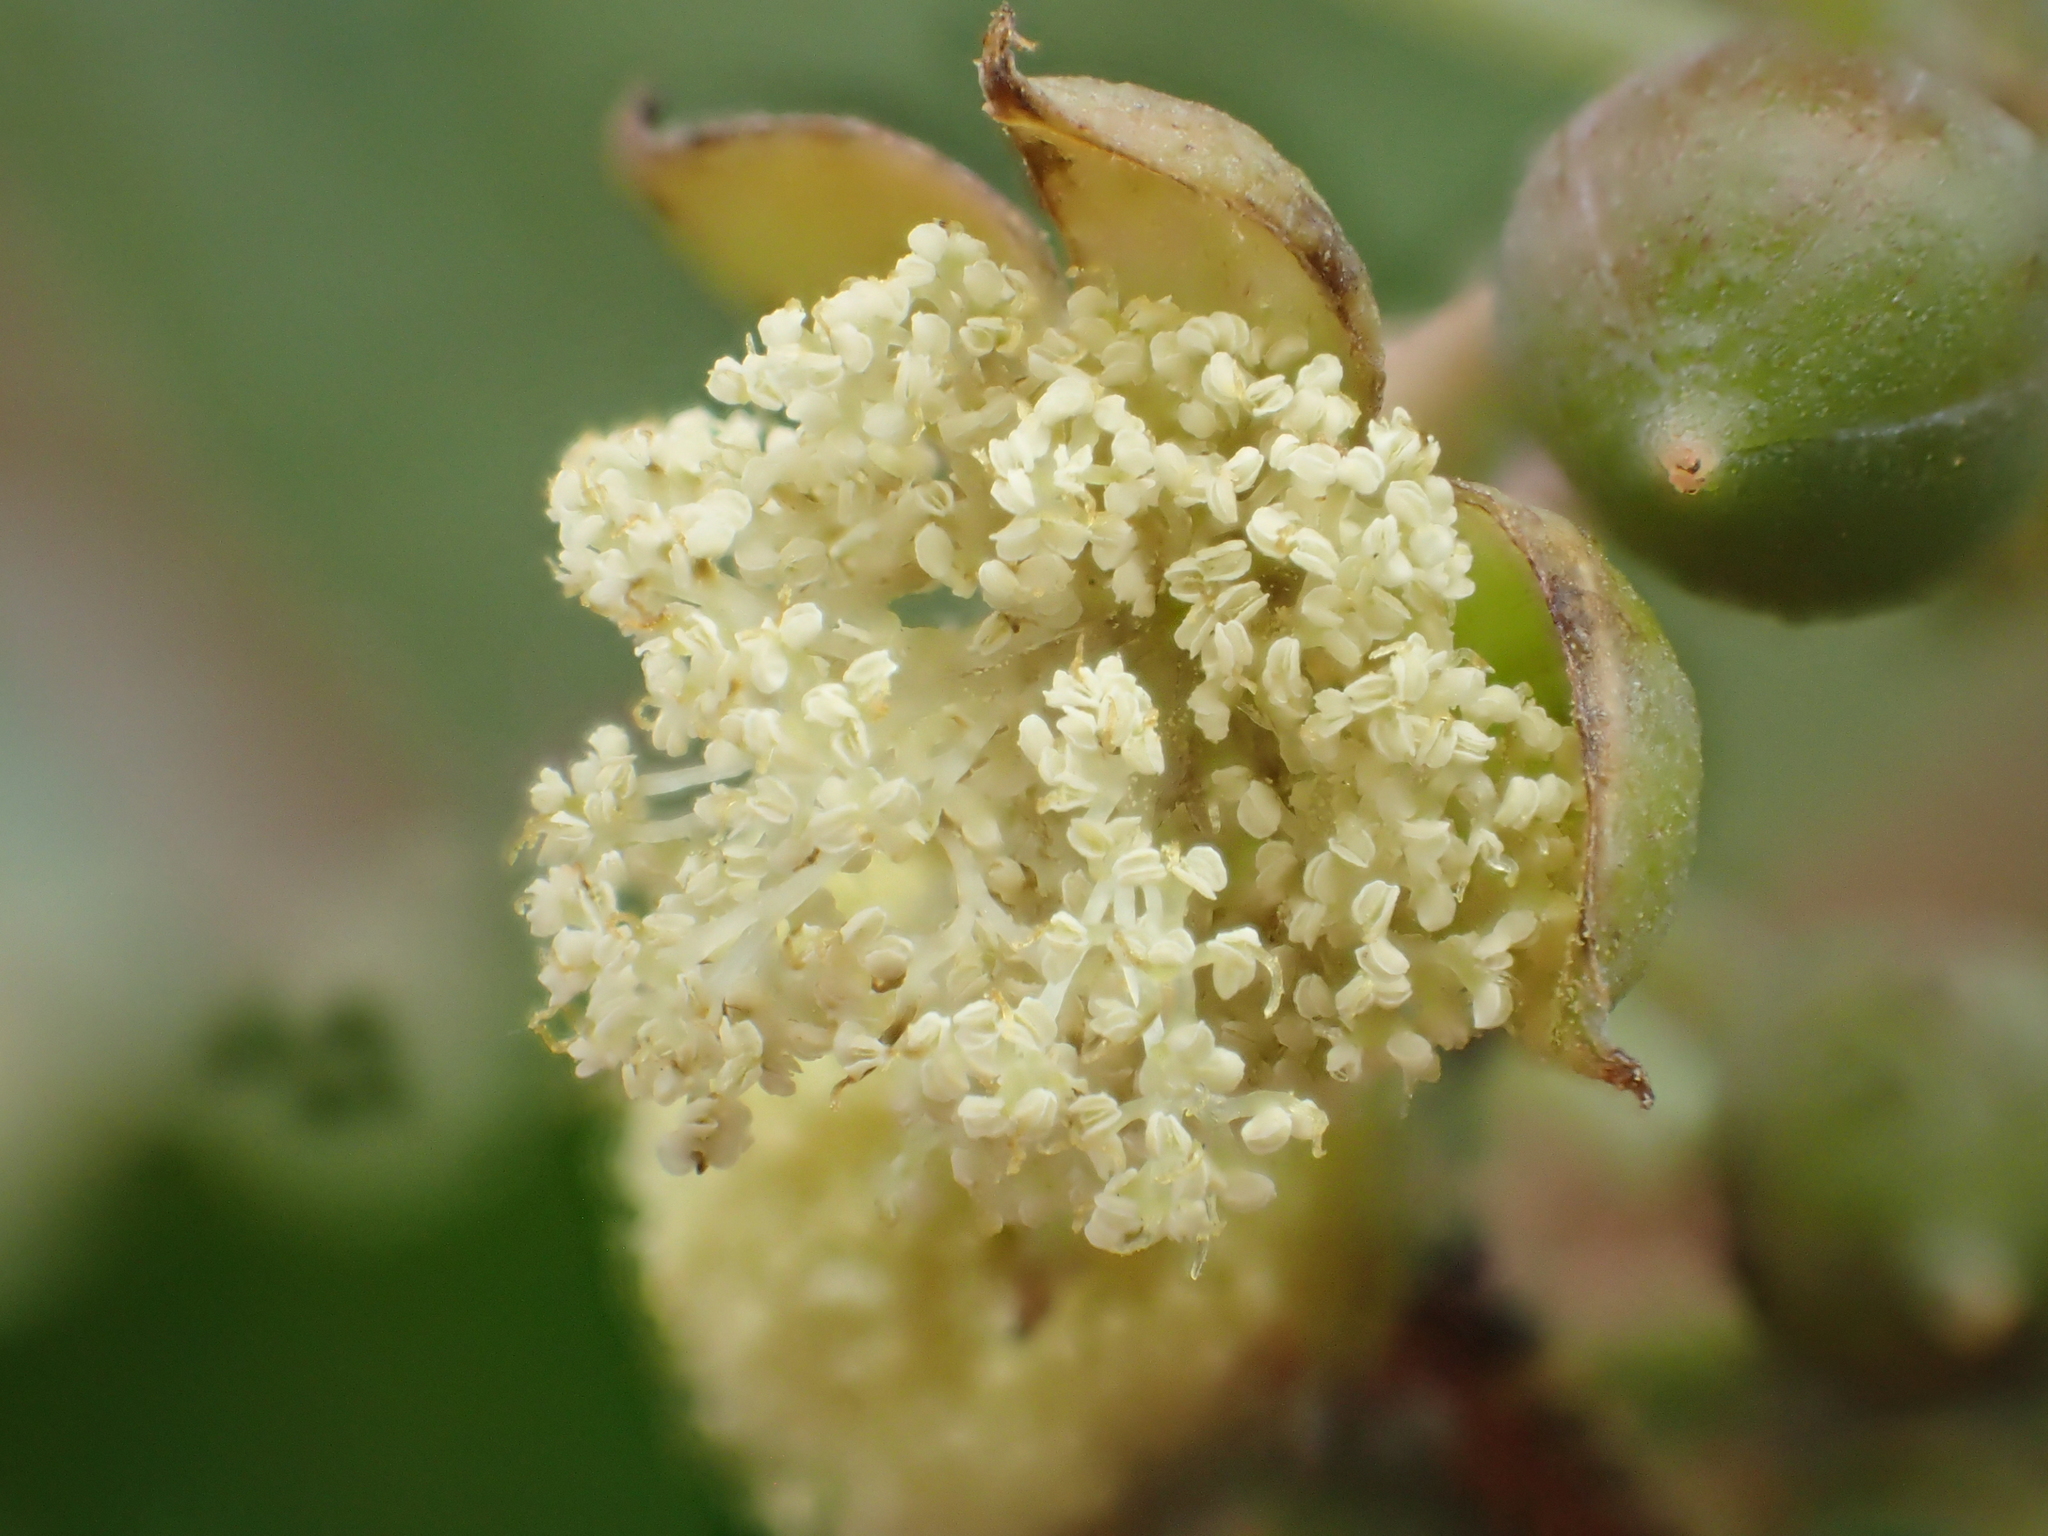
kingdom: Plantae
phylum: Tracheophyta
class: Magnoliopsida
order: Malpighiales
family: Euphorbiaceae
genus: Ricinus
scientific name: Ricinus communis
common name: Castor-oil-plant
